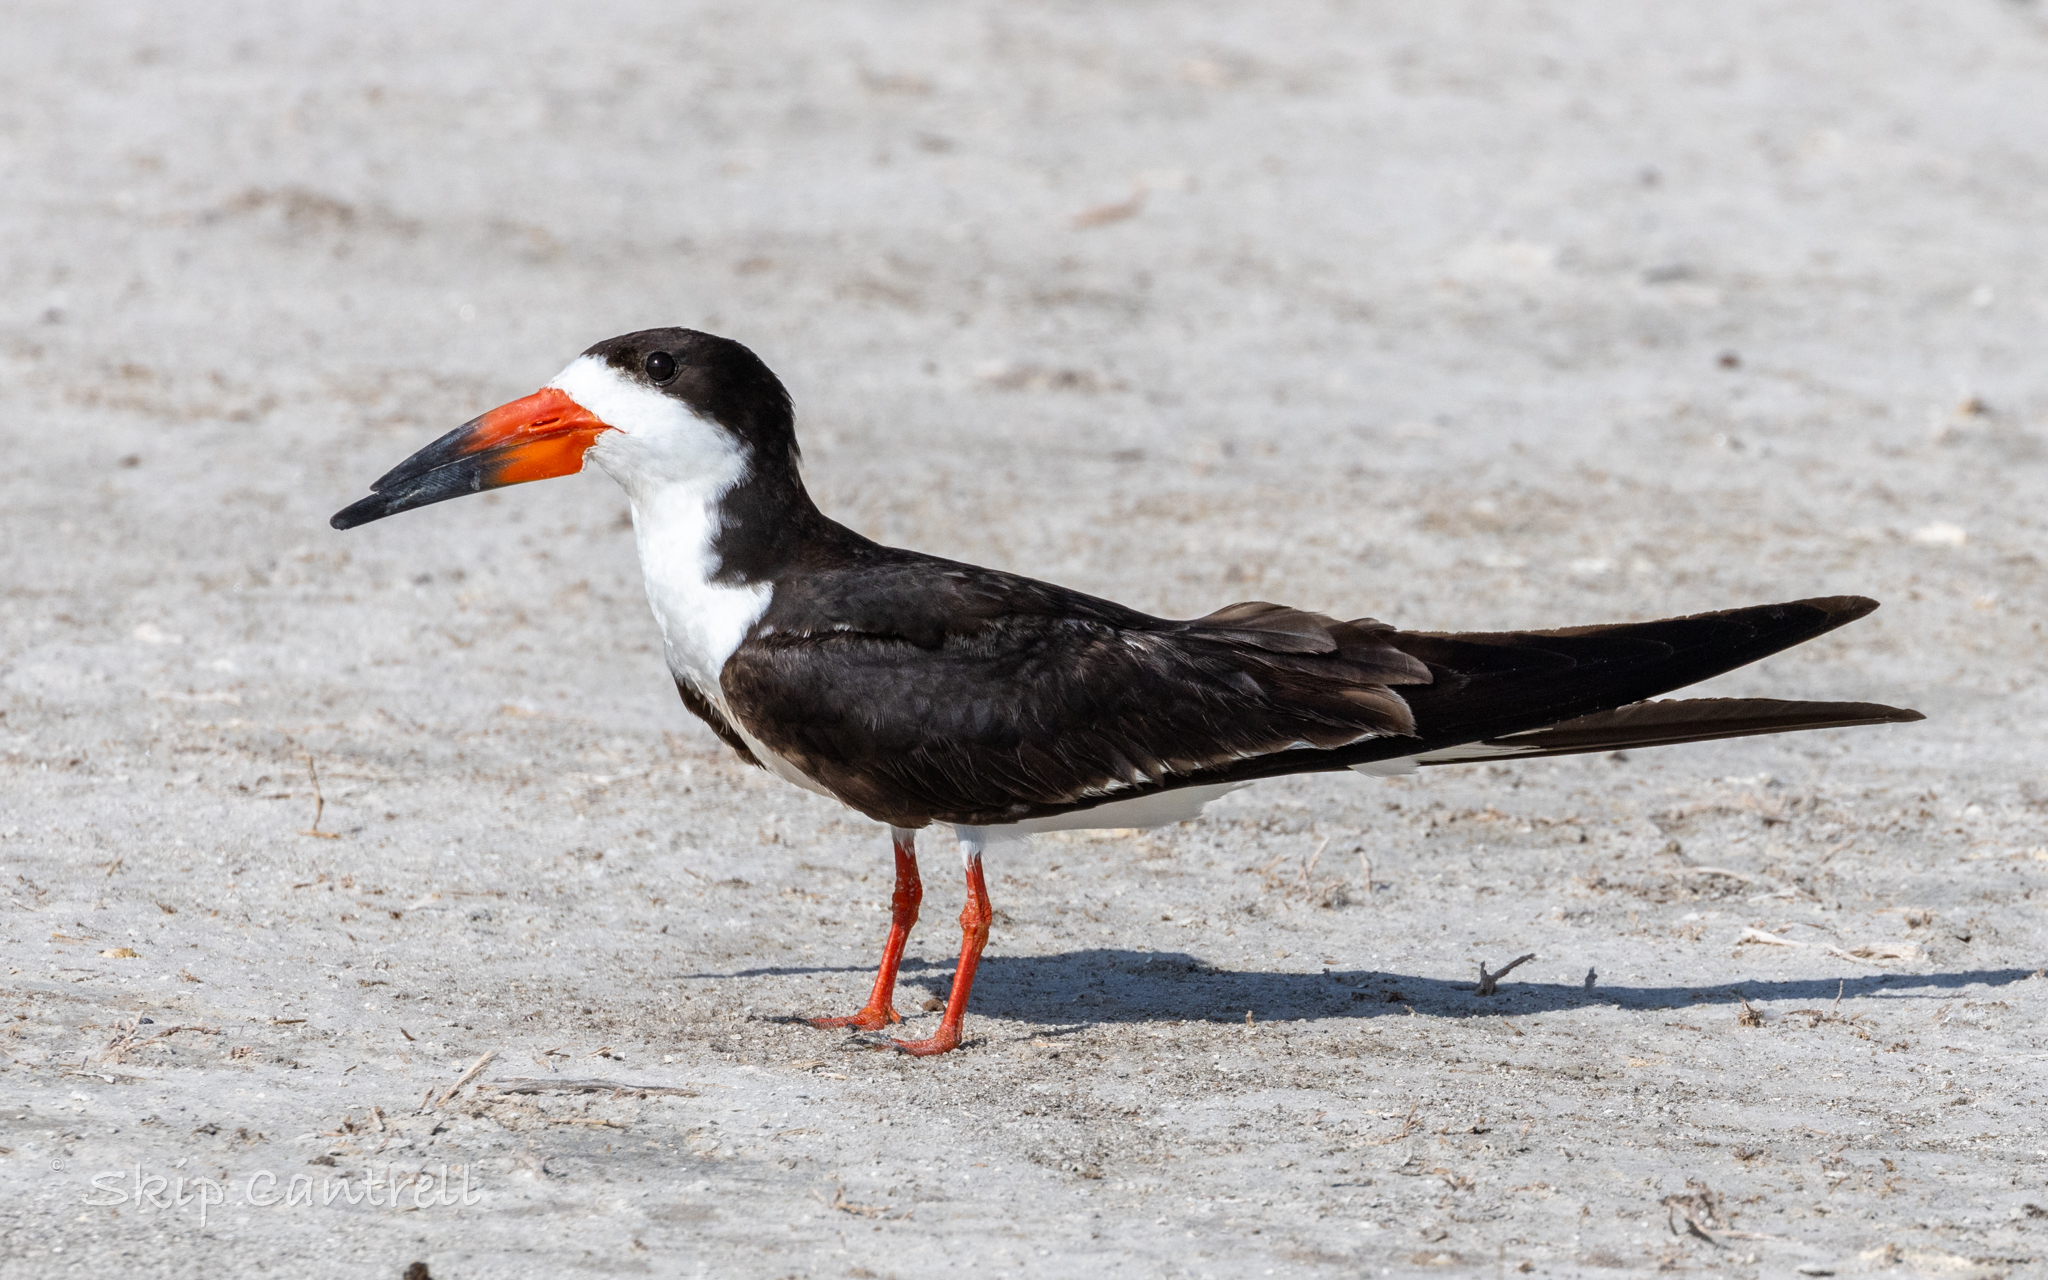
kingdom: Animalia
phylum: Chordata
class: Aves
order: Charadriiformes
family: Laridae
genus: Rynchops
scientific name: Rynchops niger
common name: Black skimmer
